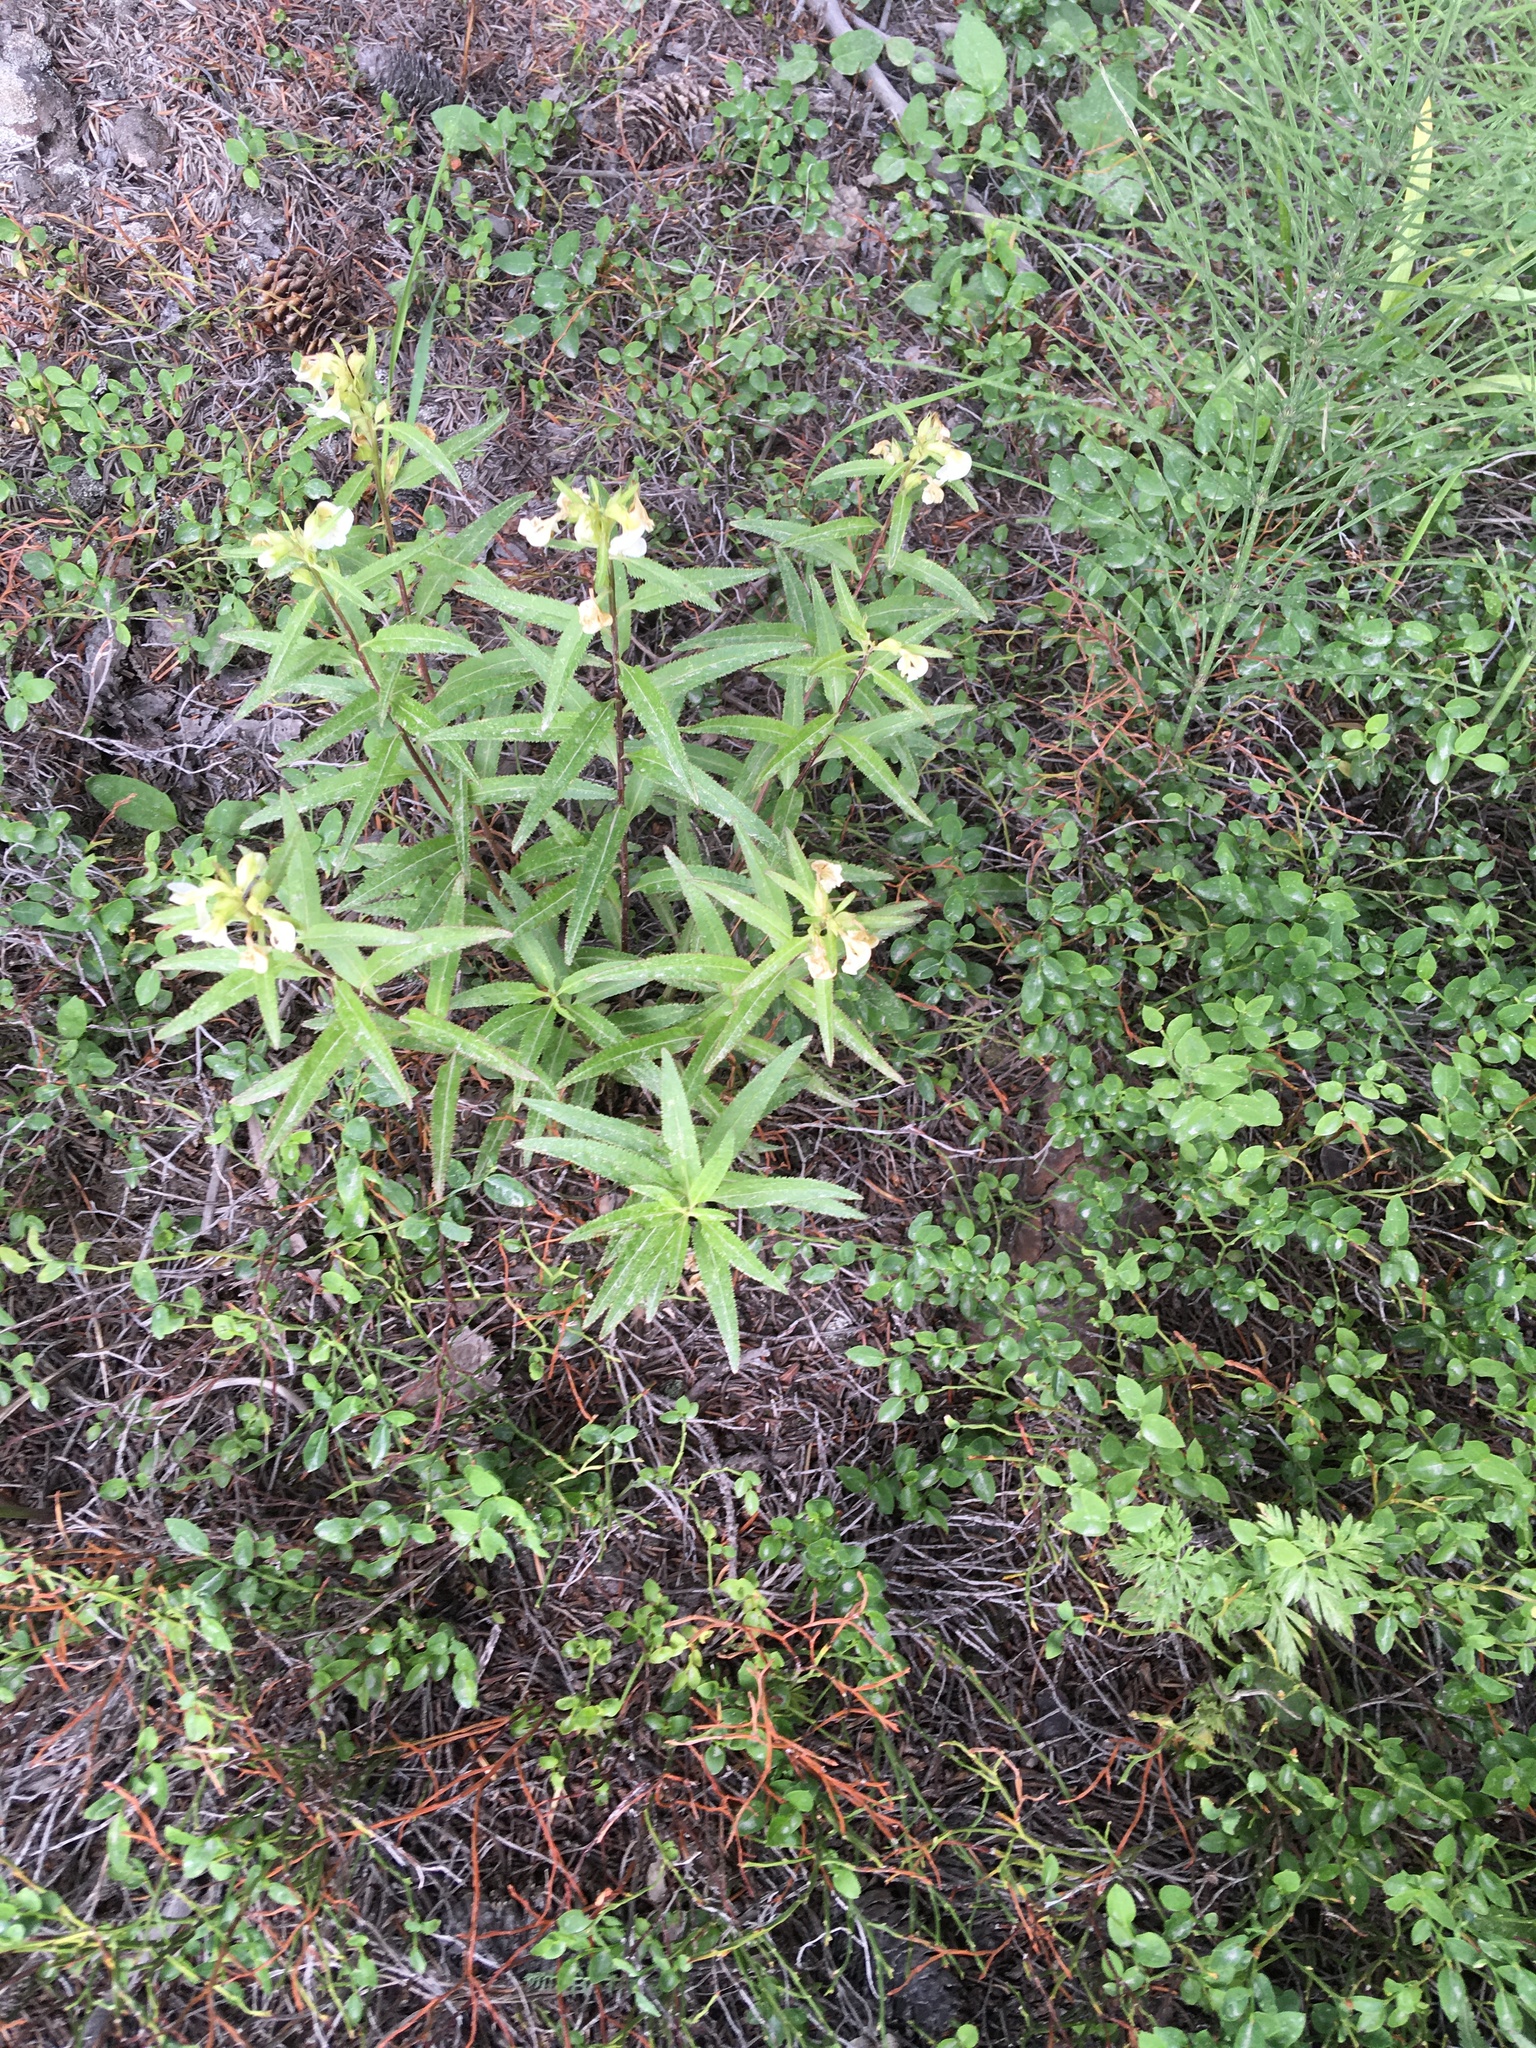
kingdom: Plantae
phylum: Tracheophyta
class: Magnoliopsida
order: Lamiales
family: Orobanchaceae
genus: Pedicularis
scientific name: Pedicularis racemosa
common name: Leafy lousewort
